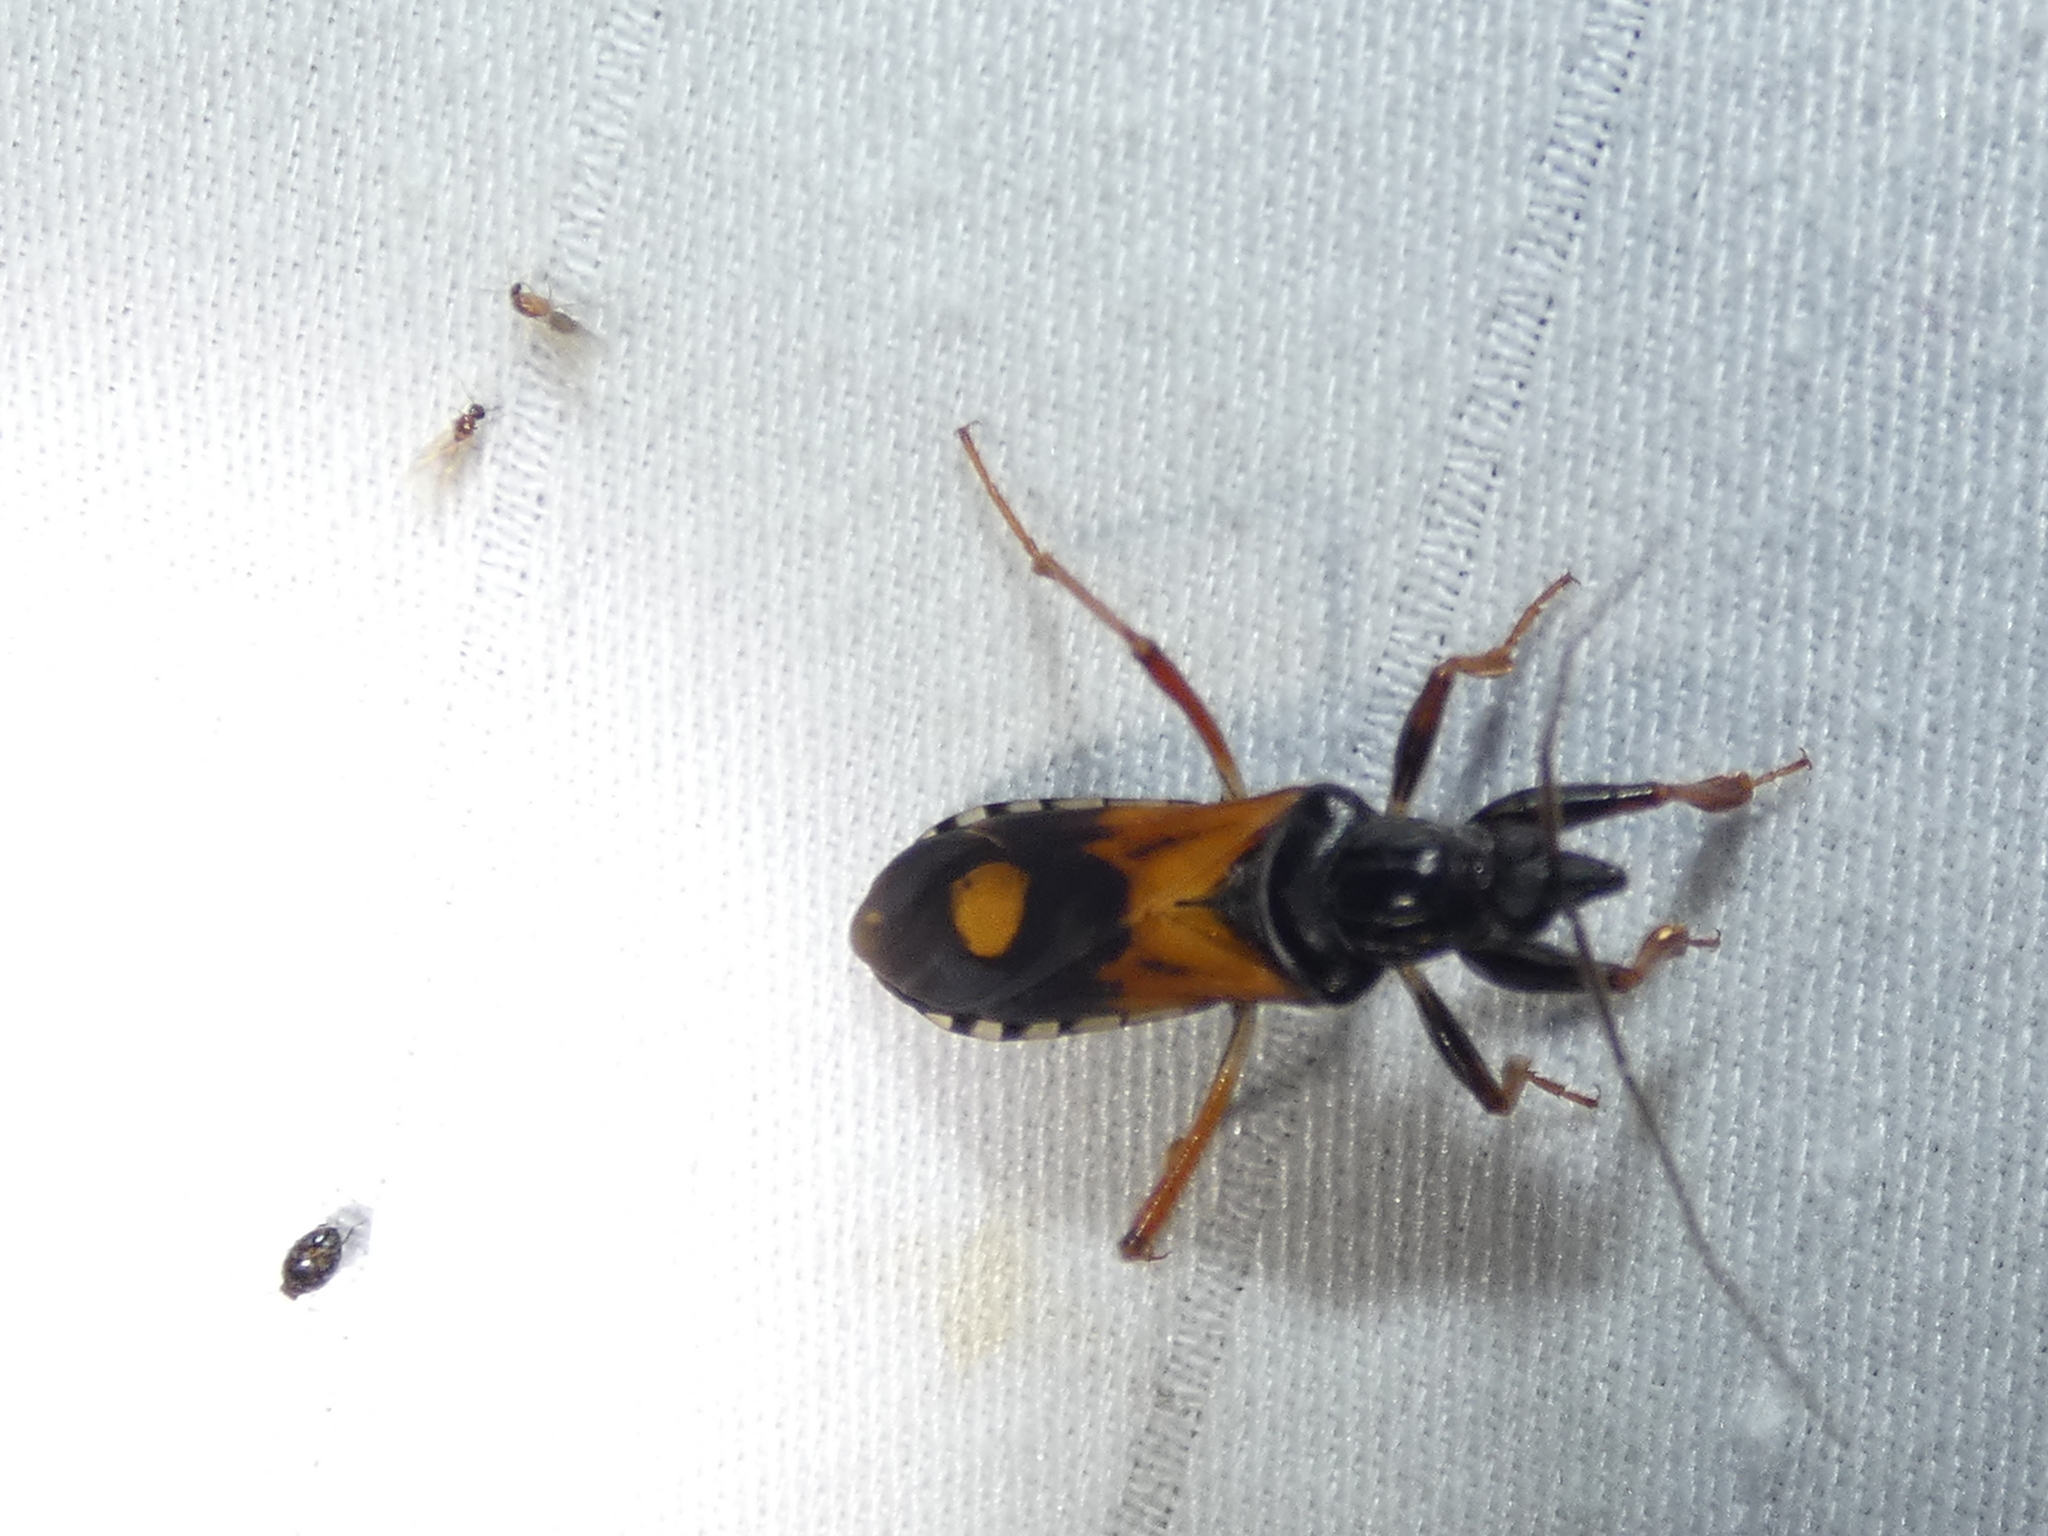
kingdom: Animalia
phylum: Arthropoda
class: Insecta
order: Hemiptera
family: Reduviidae
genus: Rasahus
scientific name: Rasahus biguttatus
